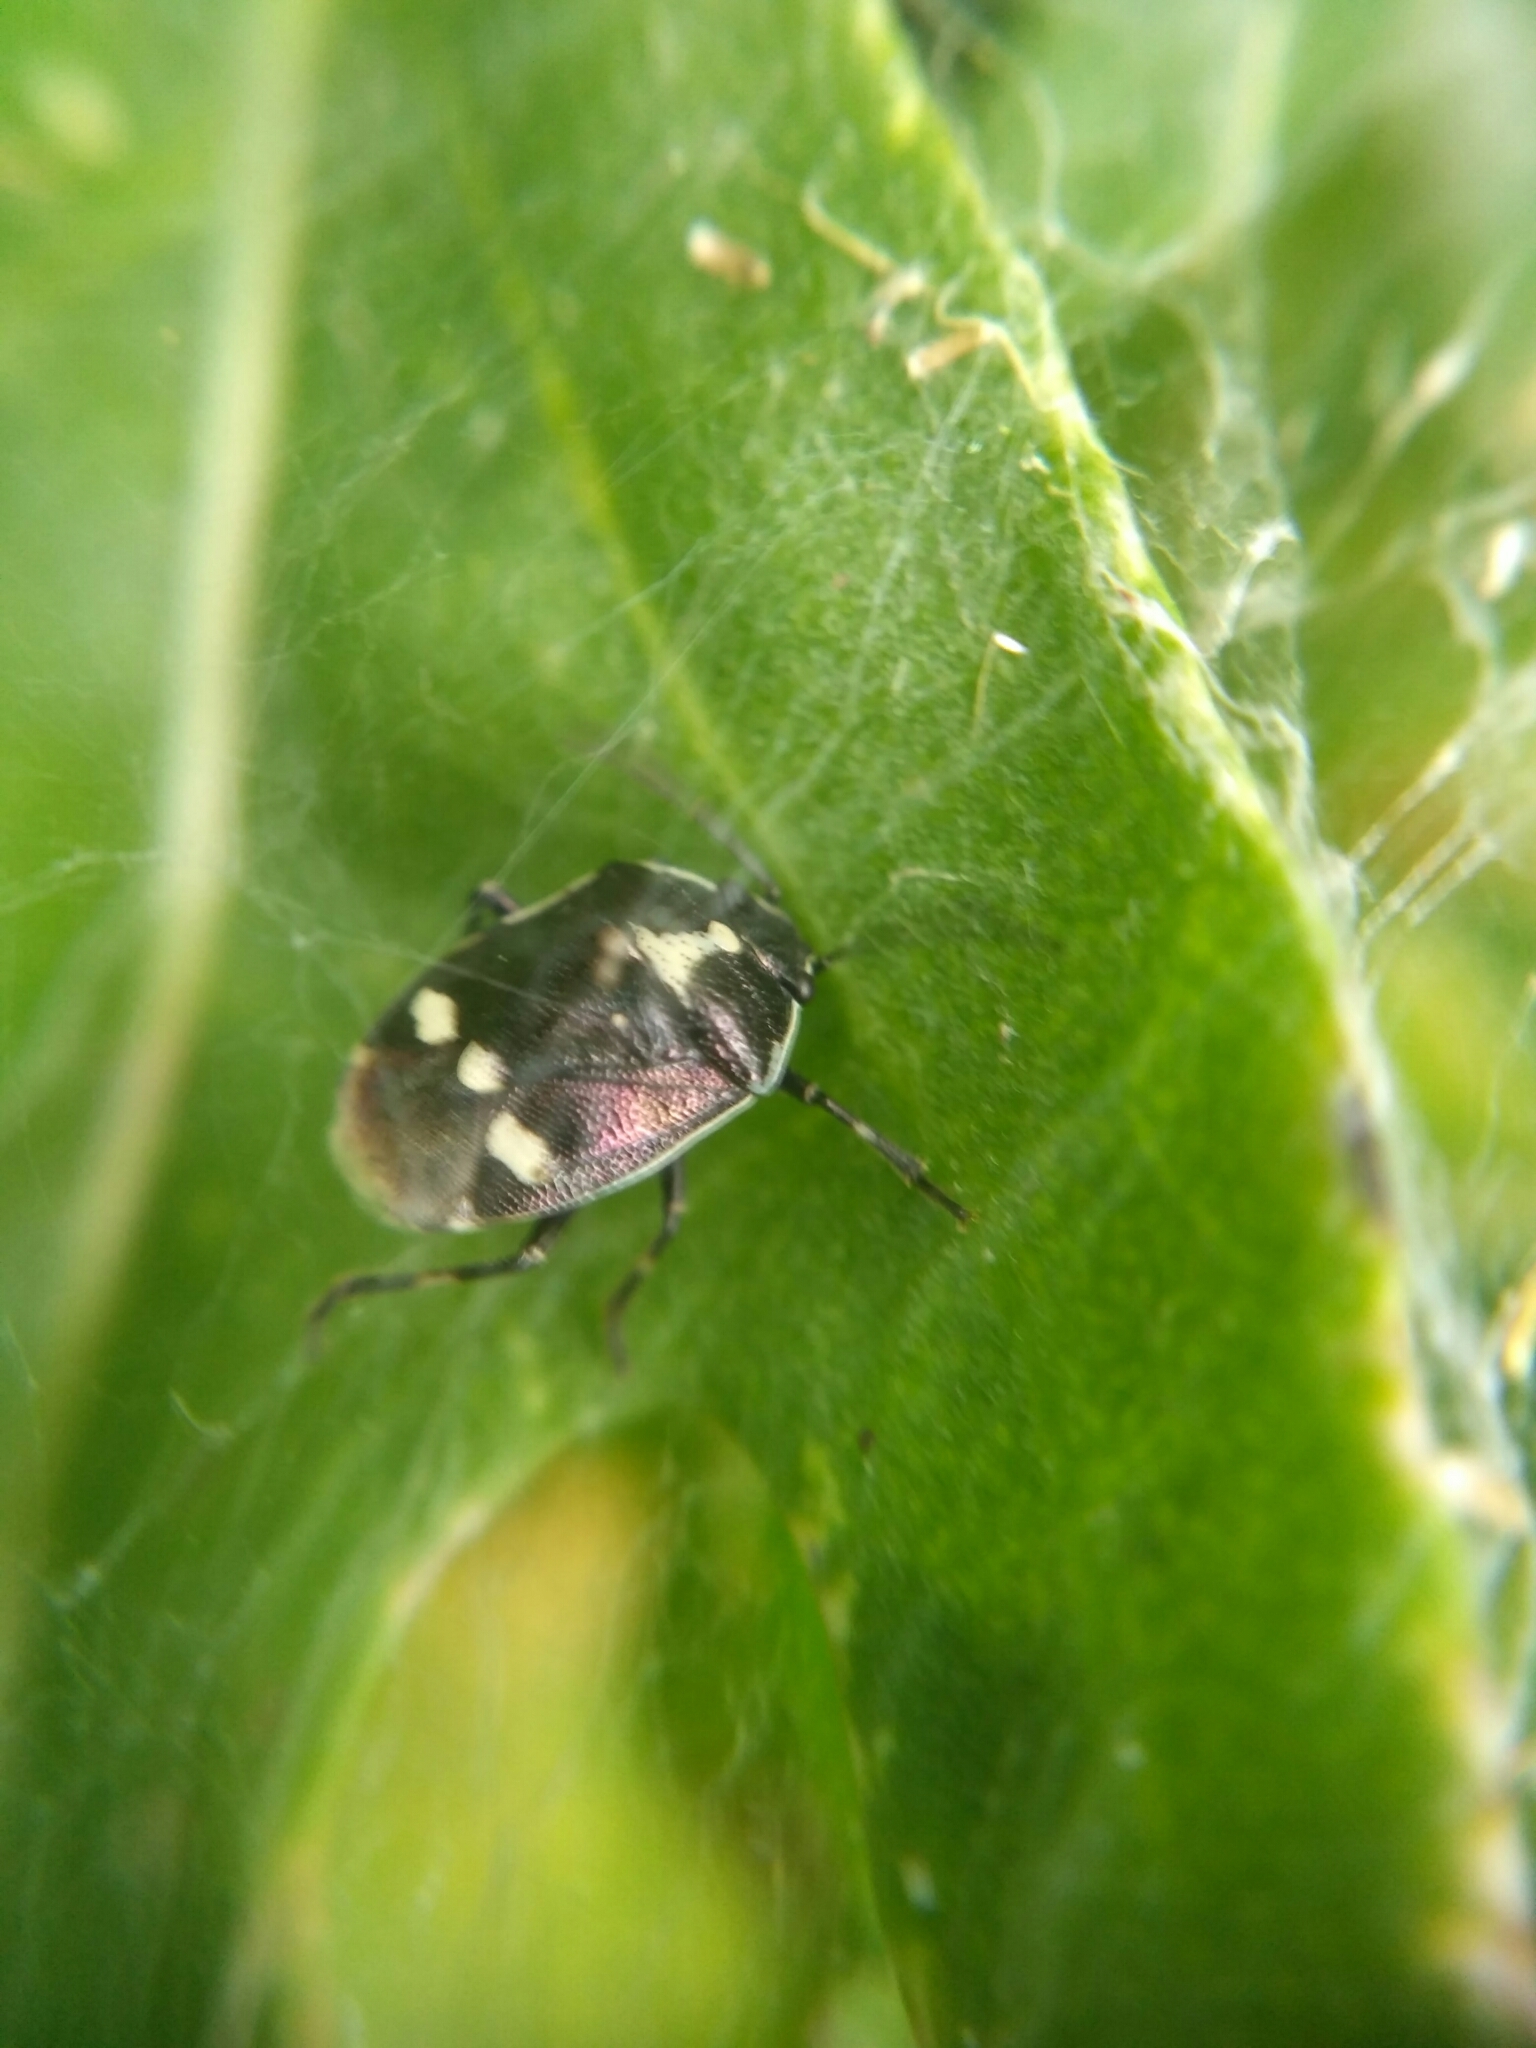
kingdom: Animalia
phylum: Arthropoda
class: Insecta
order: Hemiptera
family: Pentatomidae
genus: Eurydema
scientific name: Eurydema oleracea
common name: Cabbage bug
